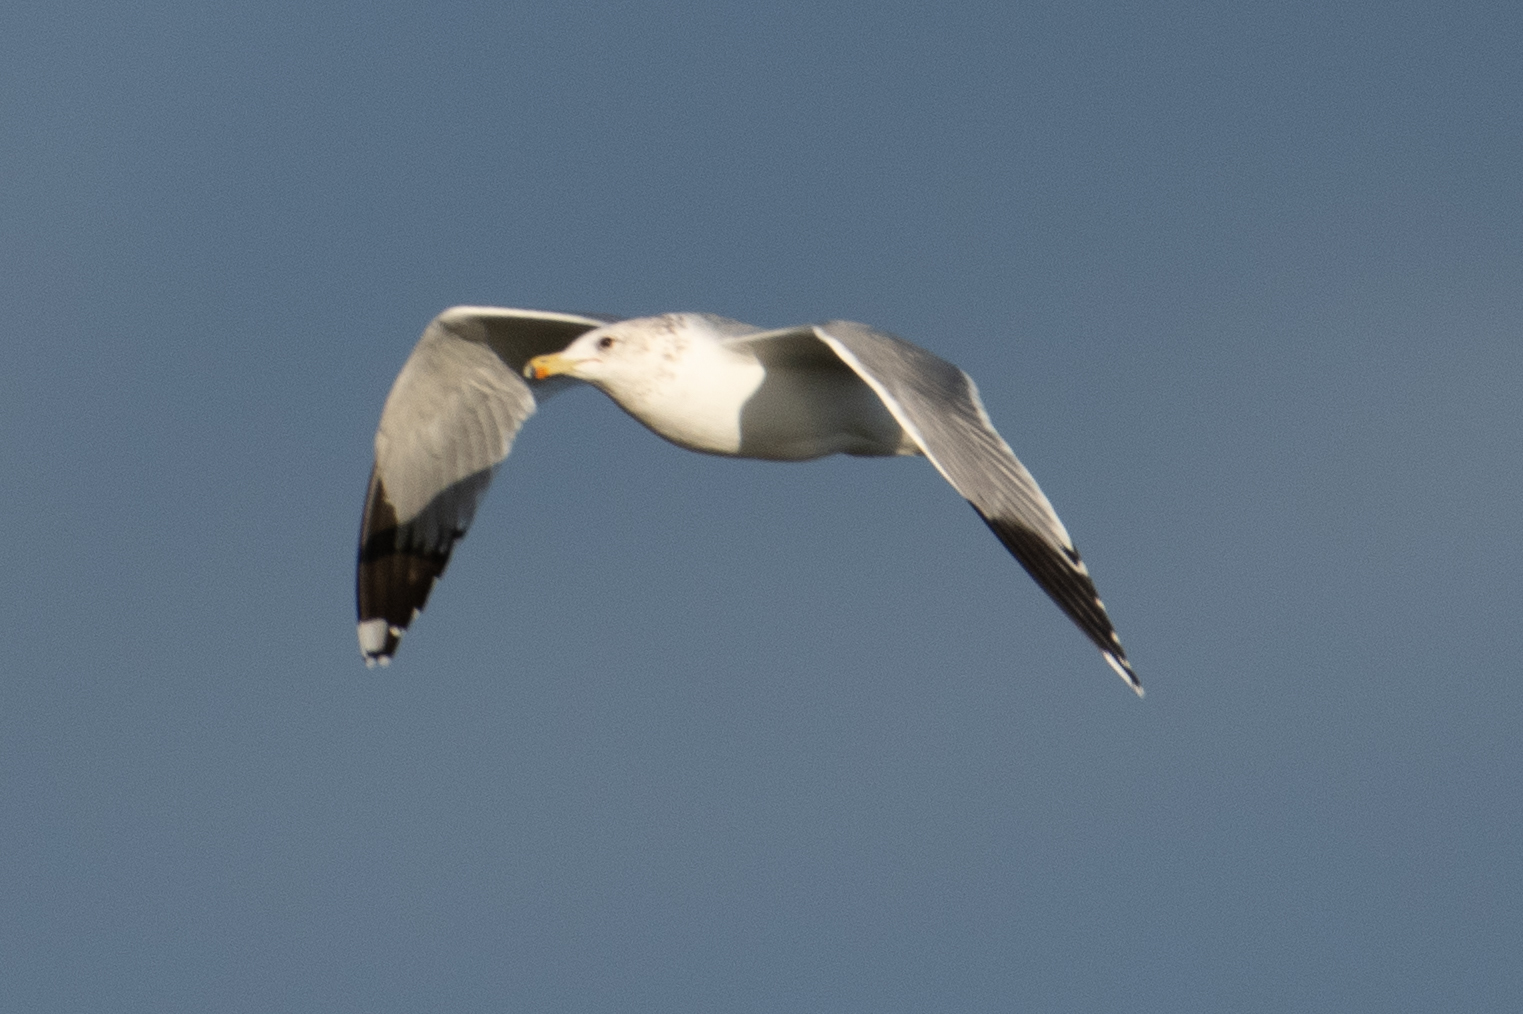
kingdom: Animalia
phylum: Chordata
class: Aves
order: Charadriiformes
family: Laridae
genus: Larus
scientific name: Larus californicus
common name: California gull
